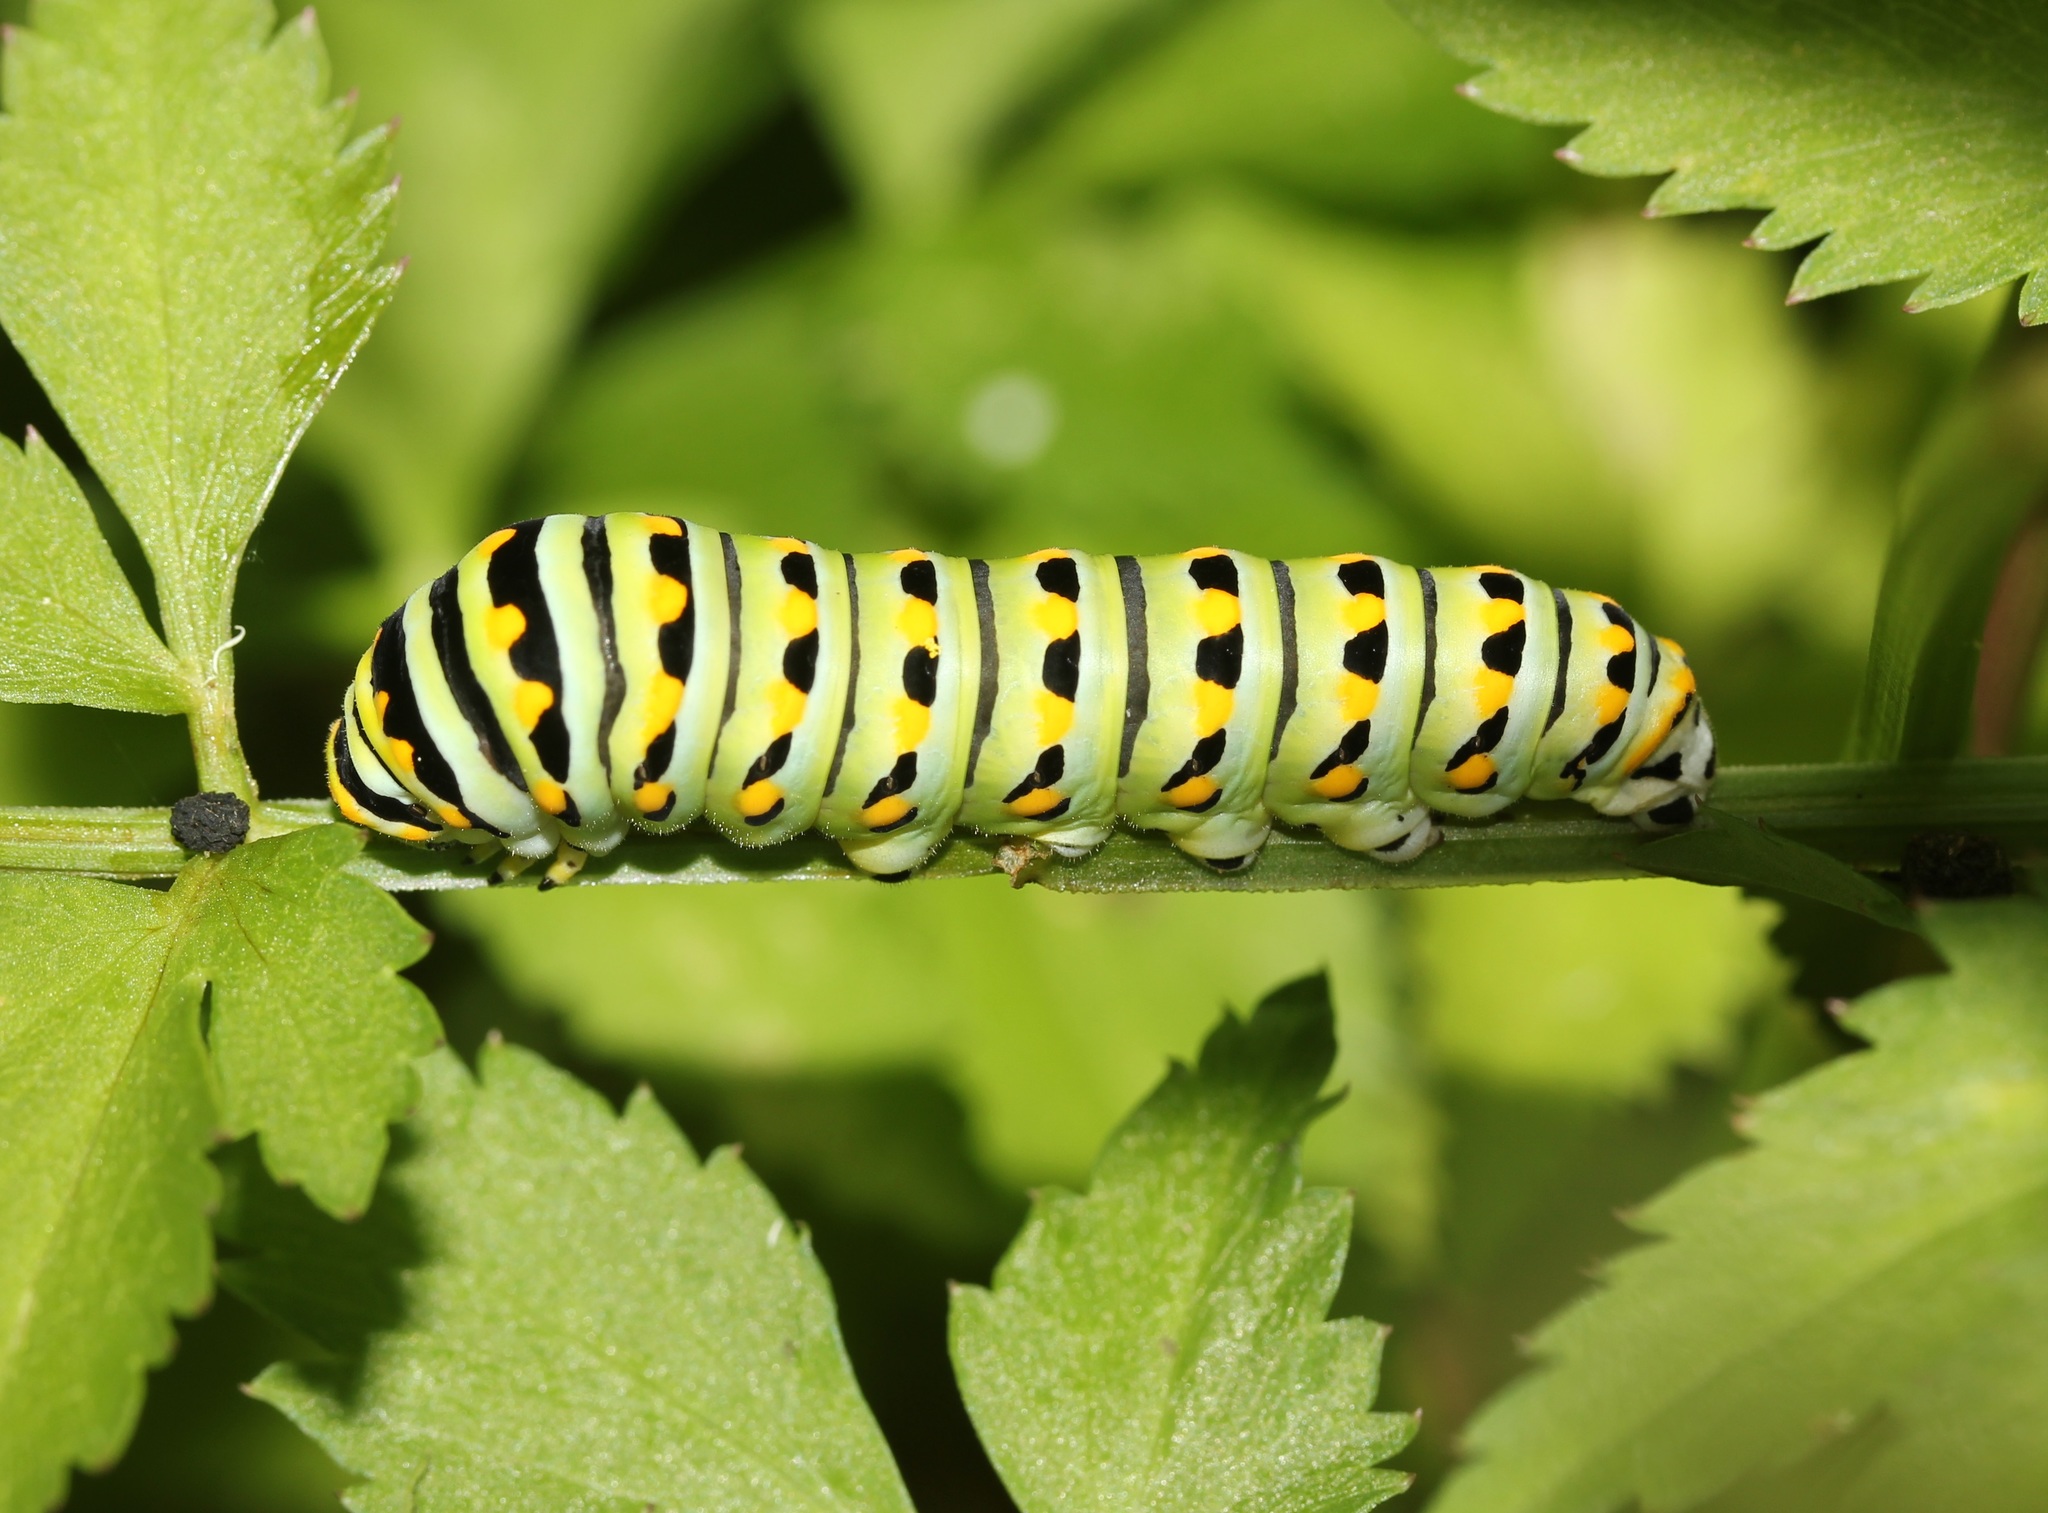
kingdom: Animalia
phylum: Arthropoda
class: Insecta
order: Lepidoptera
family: Papilionidae
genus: Papilio
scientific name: Papilio polyxenes
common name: Black swallowtail
